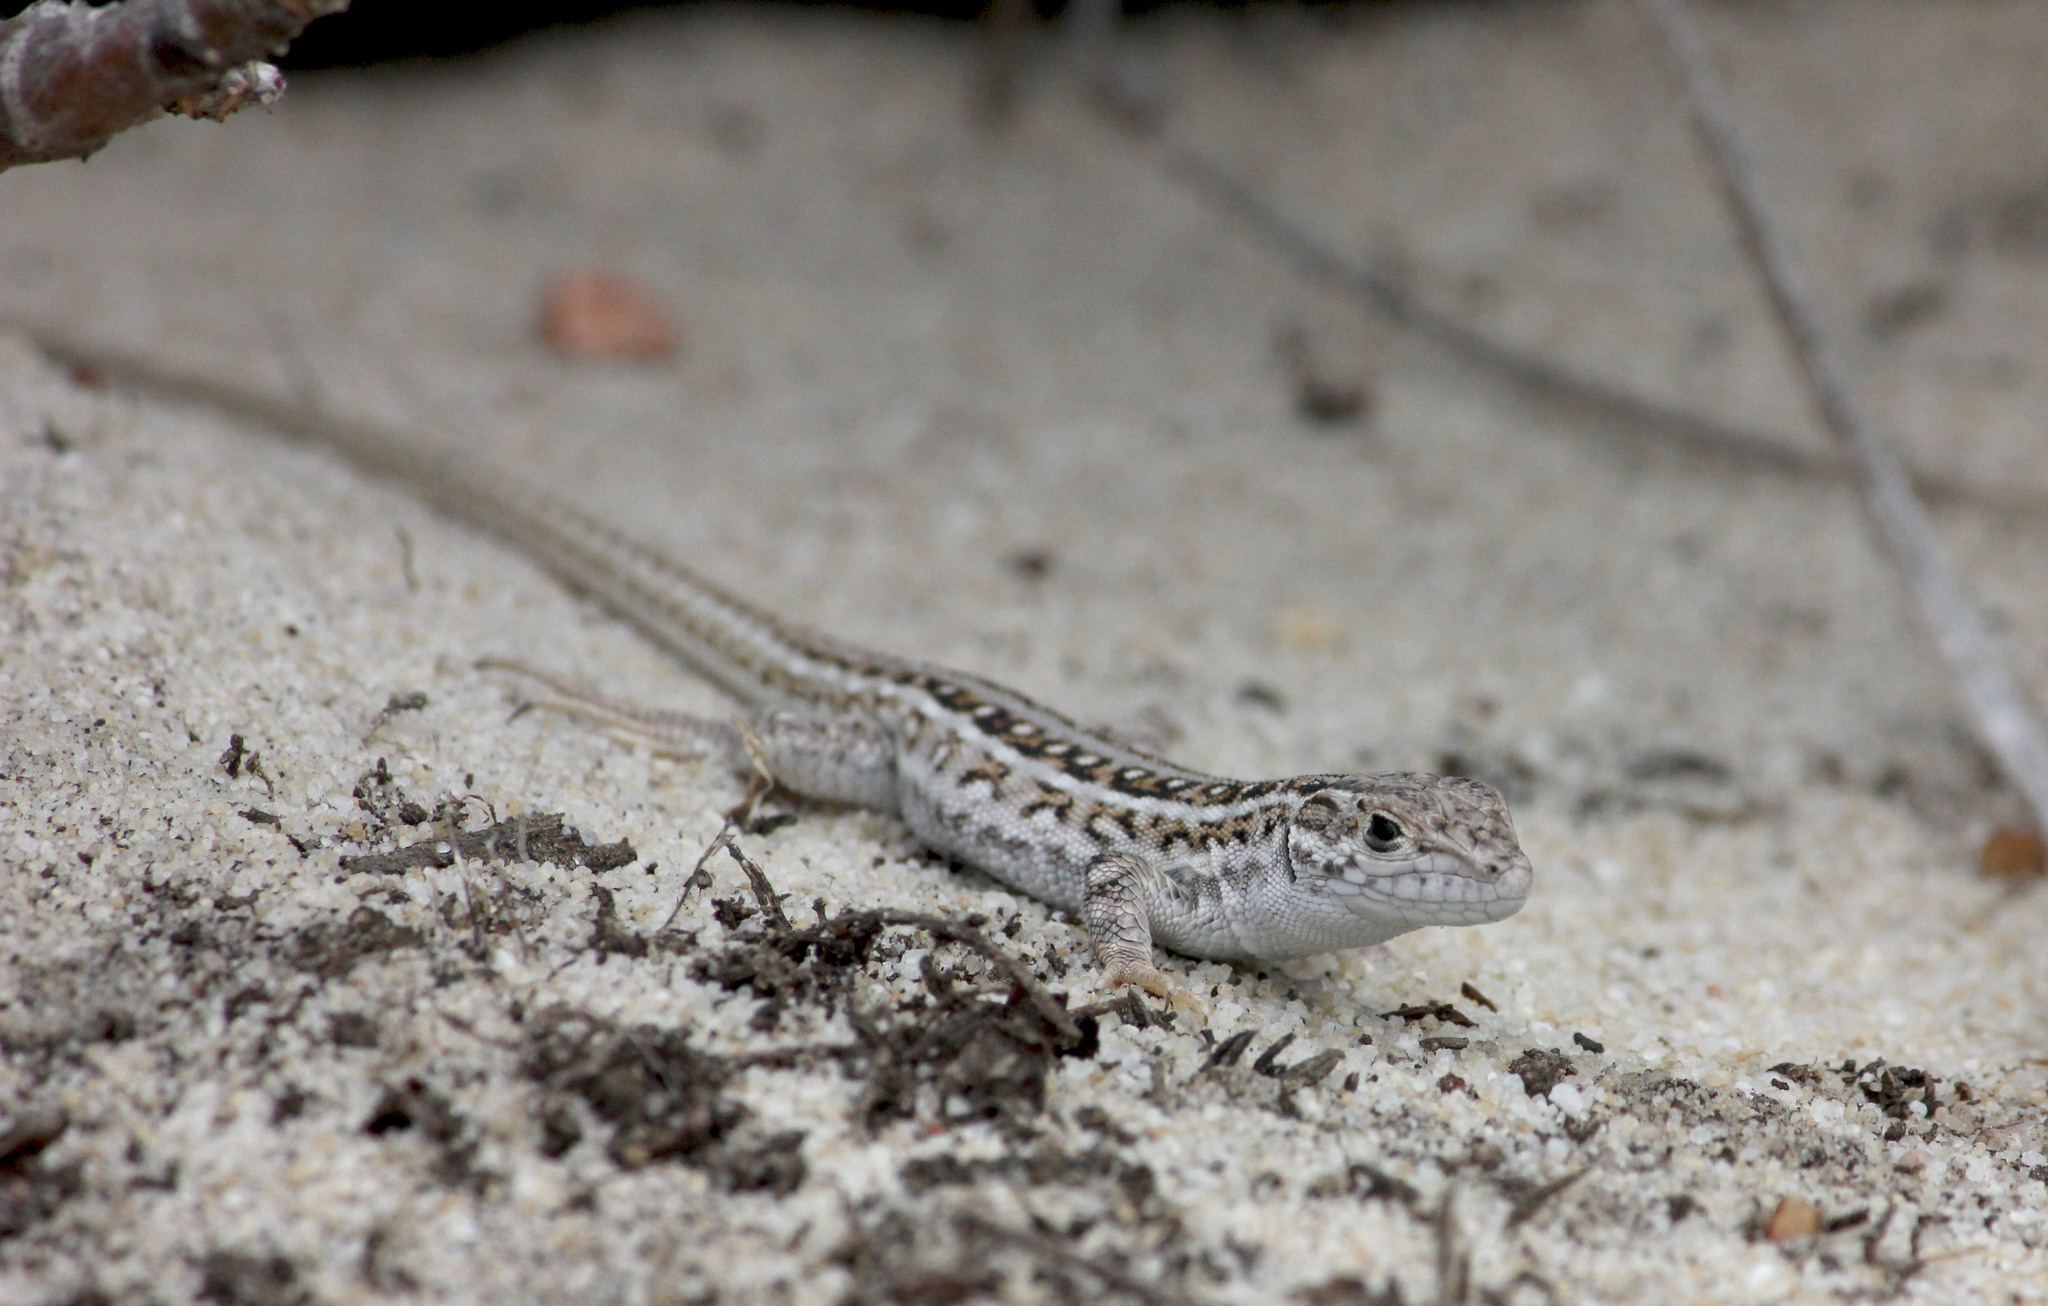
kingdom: Animalia
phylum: Chordata
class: Squamata
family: Lacertidae
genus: Meroles
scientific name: Meroles knoxii
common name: Knox's desert lizard
